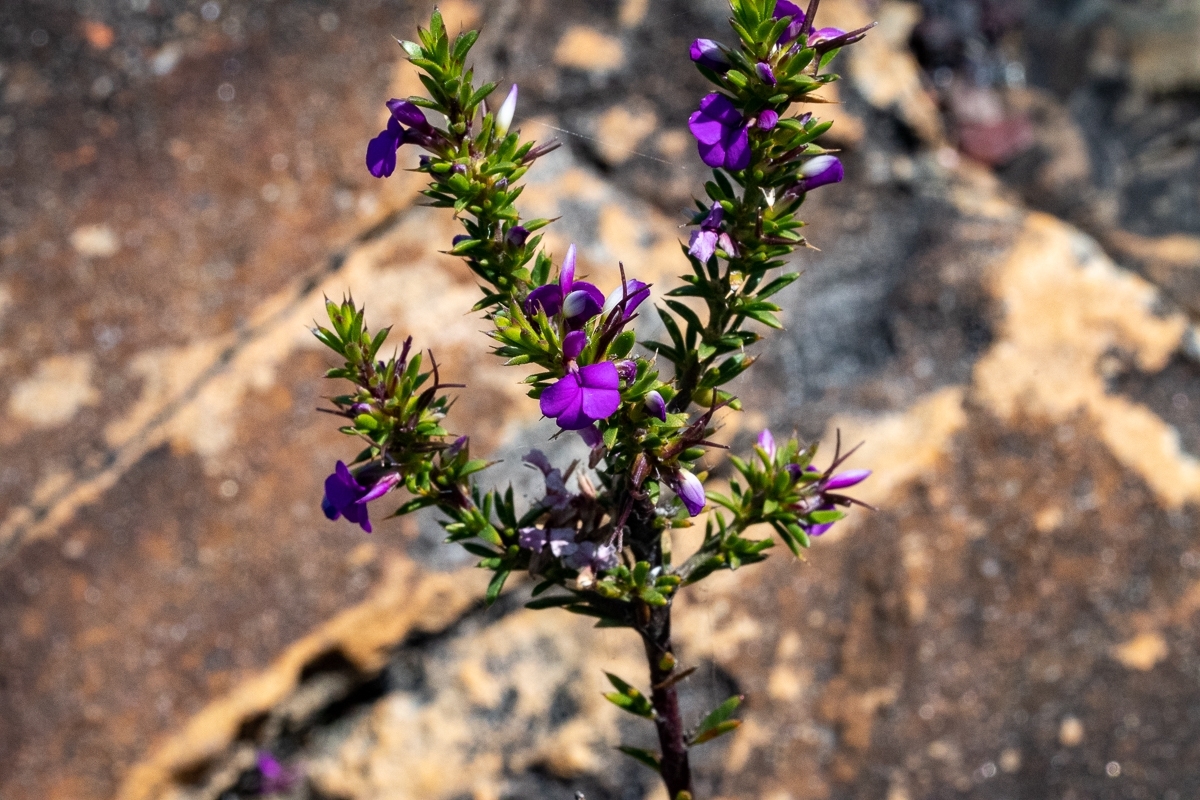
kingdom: Plantae
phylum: Tracheophyta
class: Magnoliopsida
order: Fabales
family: Polygalaceae
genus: Muraltia
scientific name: Muraltia heisteria
